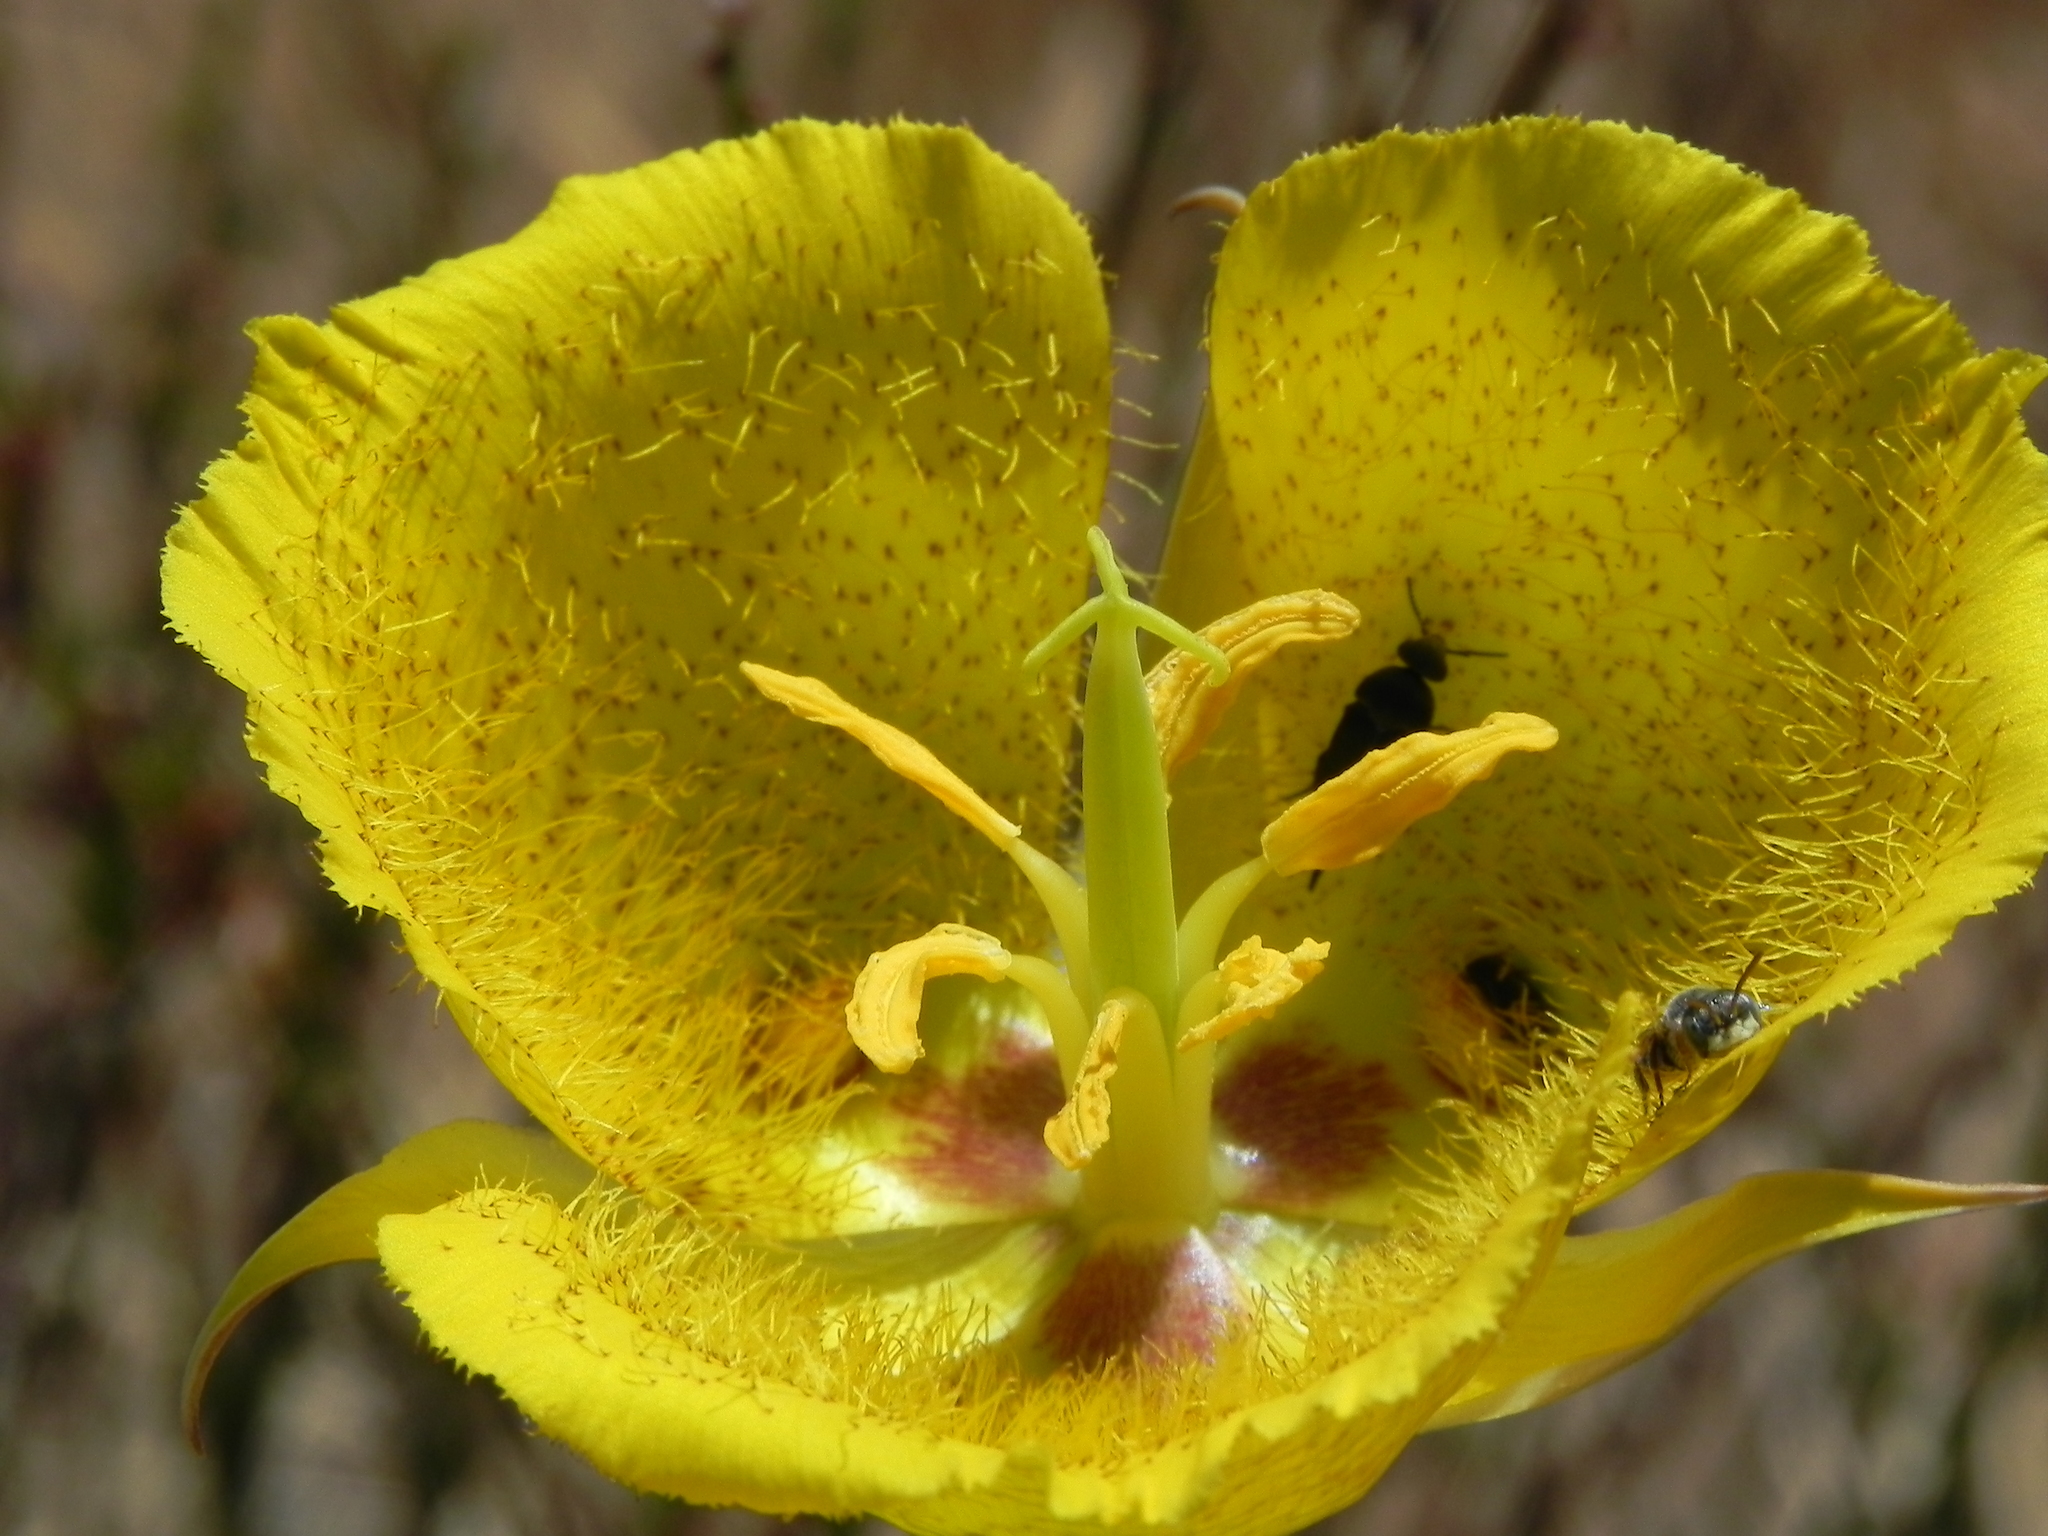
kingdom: Plantae
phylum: Tracheophyta
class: Liliopsida
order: Liliales
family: Liliaceae
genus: Calochortus
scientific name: Calochortus weedii
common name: Weed's mariposa-lily
